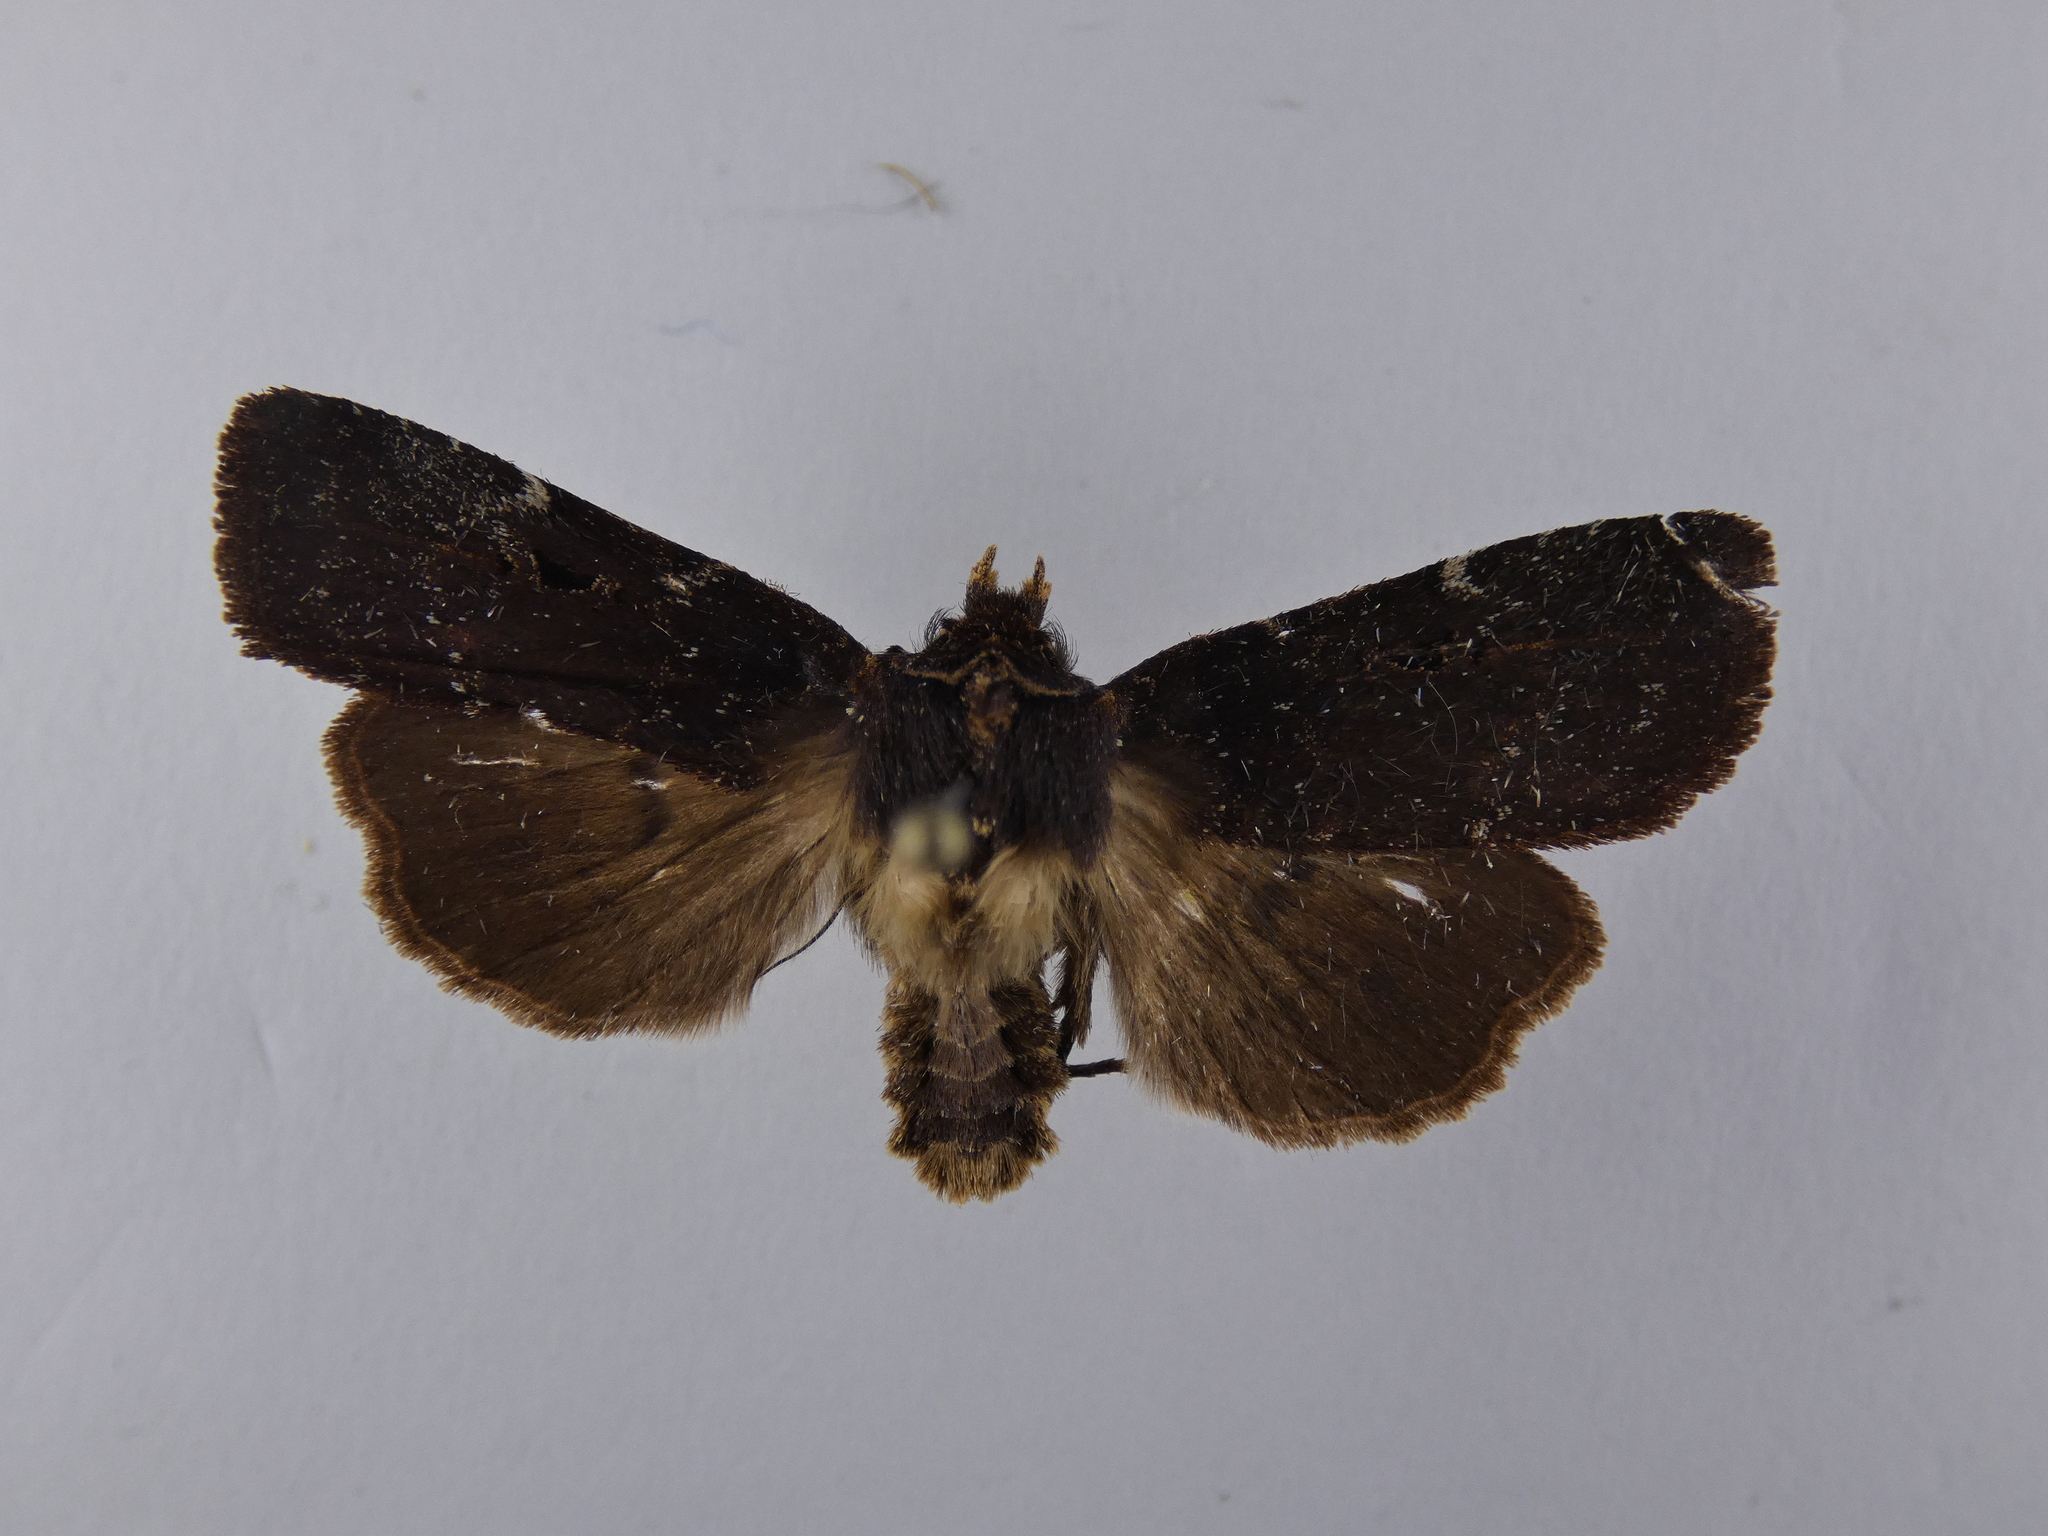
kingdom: Animalia
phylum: Arthropoda
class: Insecta
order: Lepidoptera
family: Noctuidae
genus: Austramathes
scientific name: Austramathes purpurea
